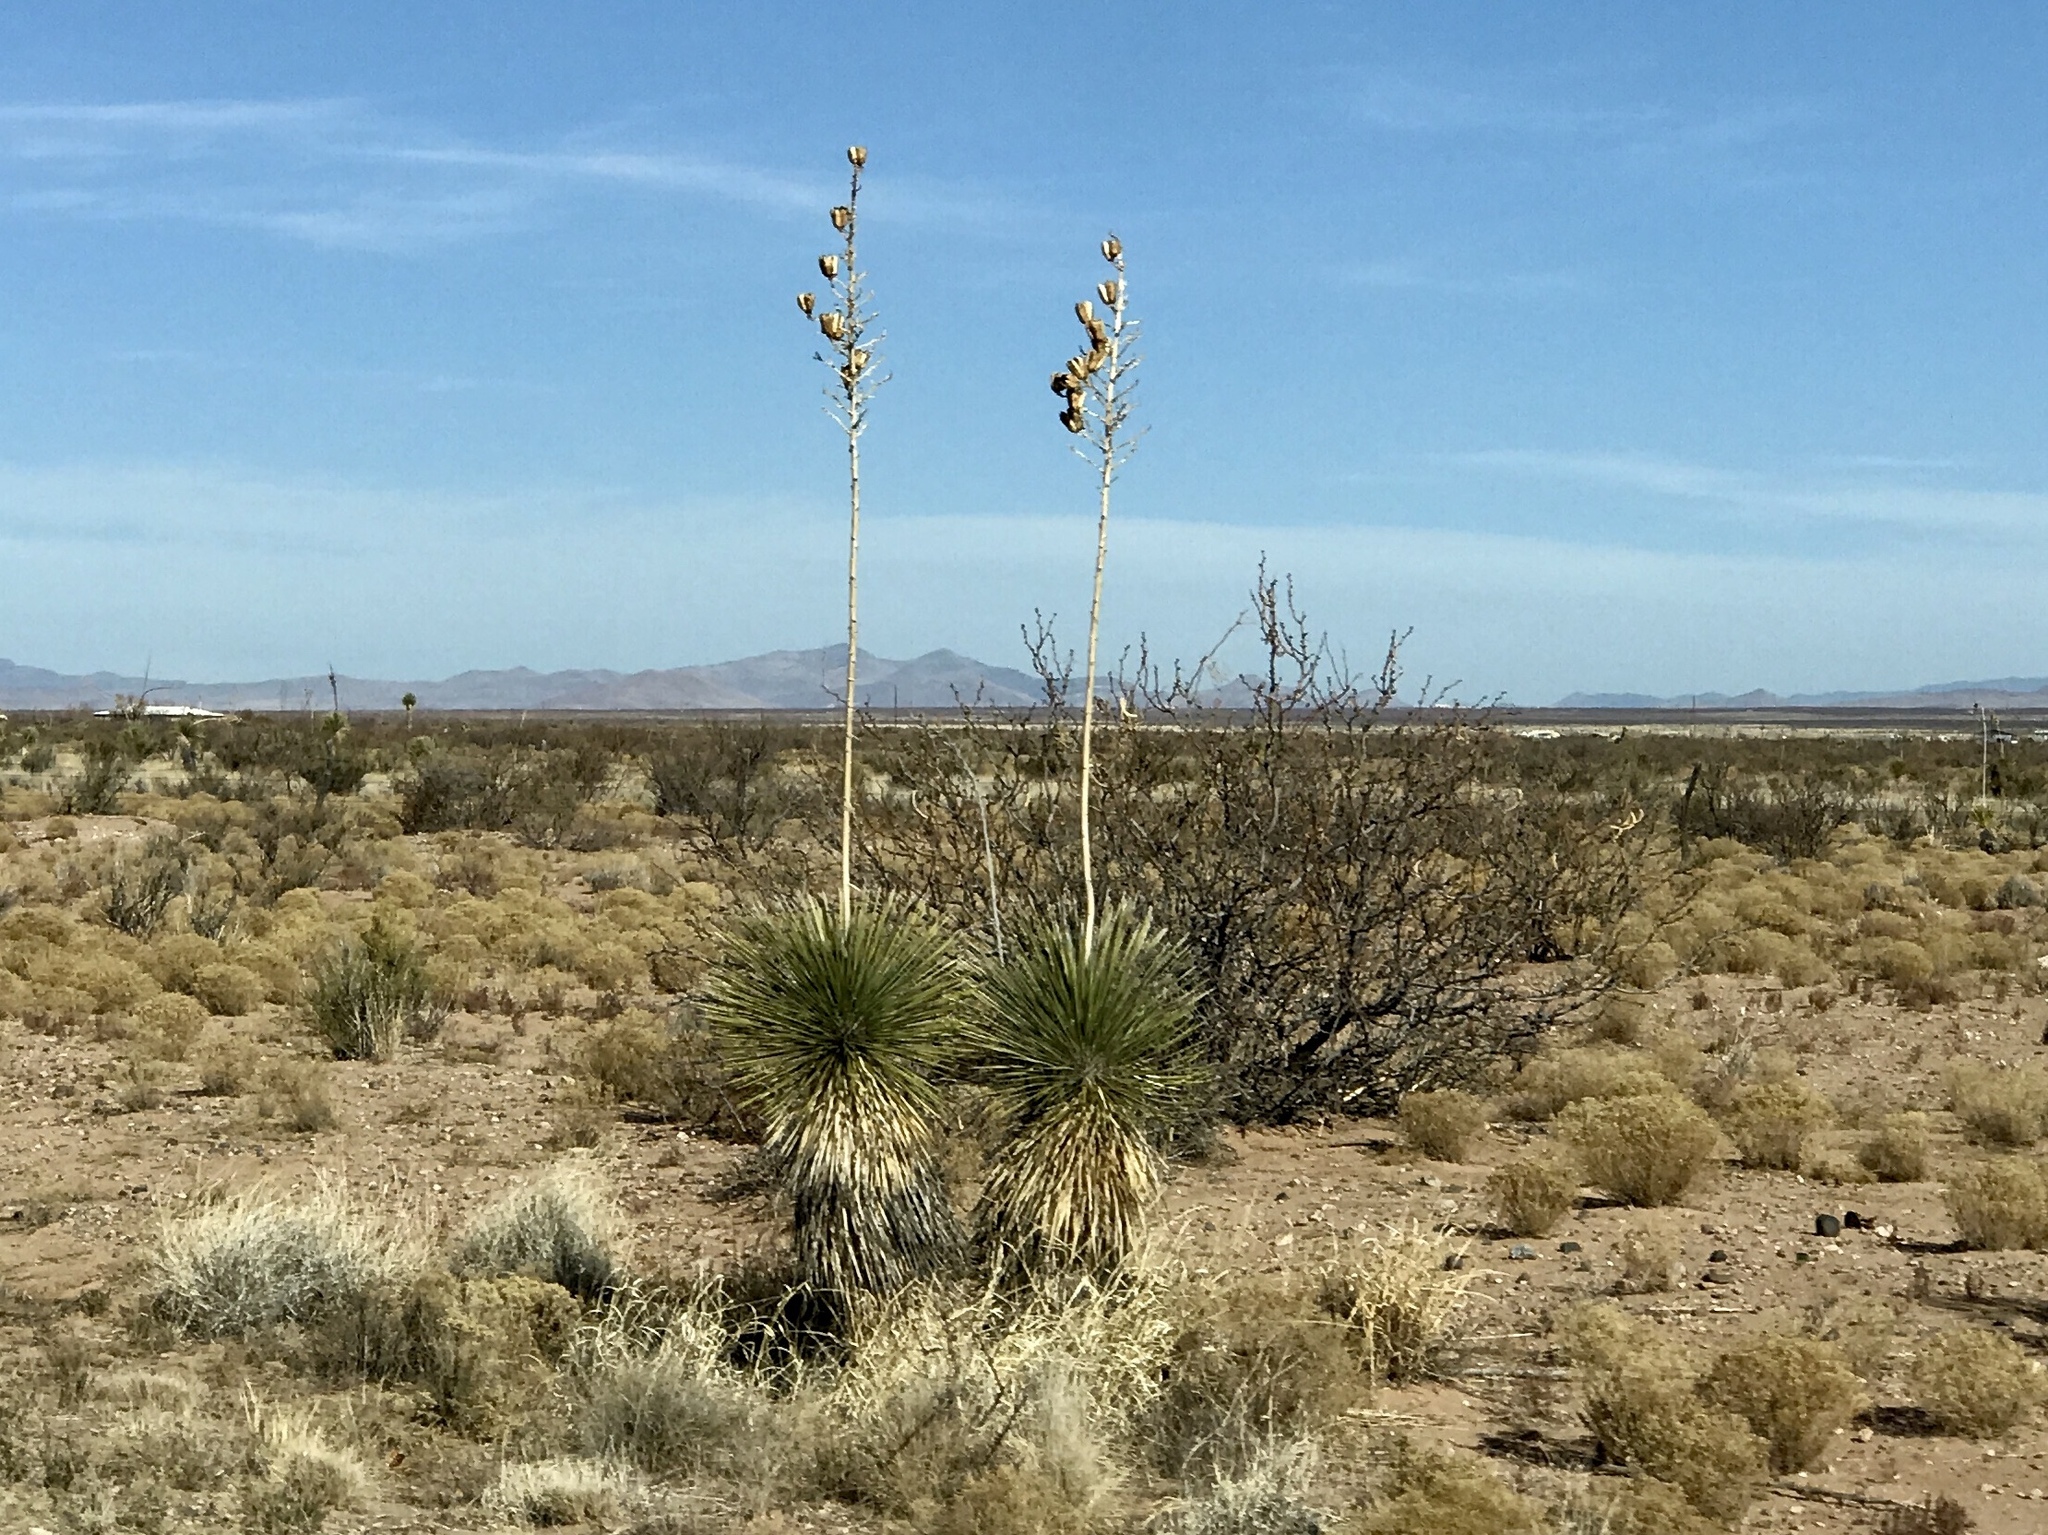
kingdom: Plantae
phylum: Tracheophyta
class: Liliopsida
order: Asparagales
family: Asparagaceae
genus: Yucca
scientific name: Yucca elata
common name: Palmella
